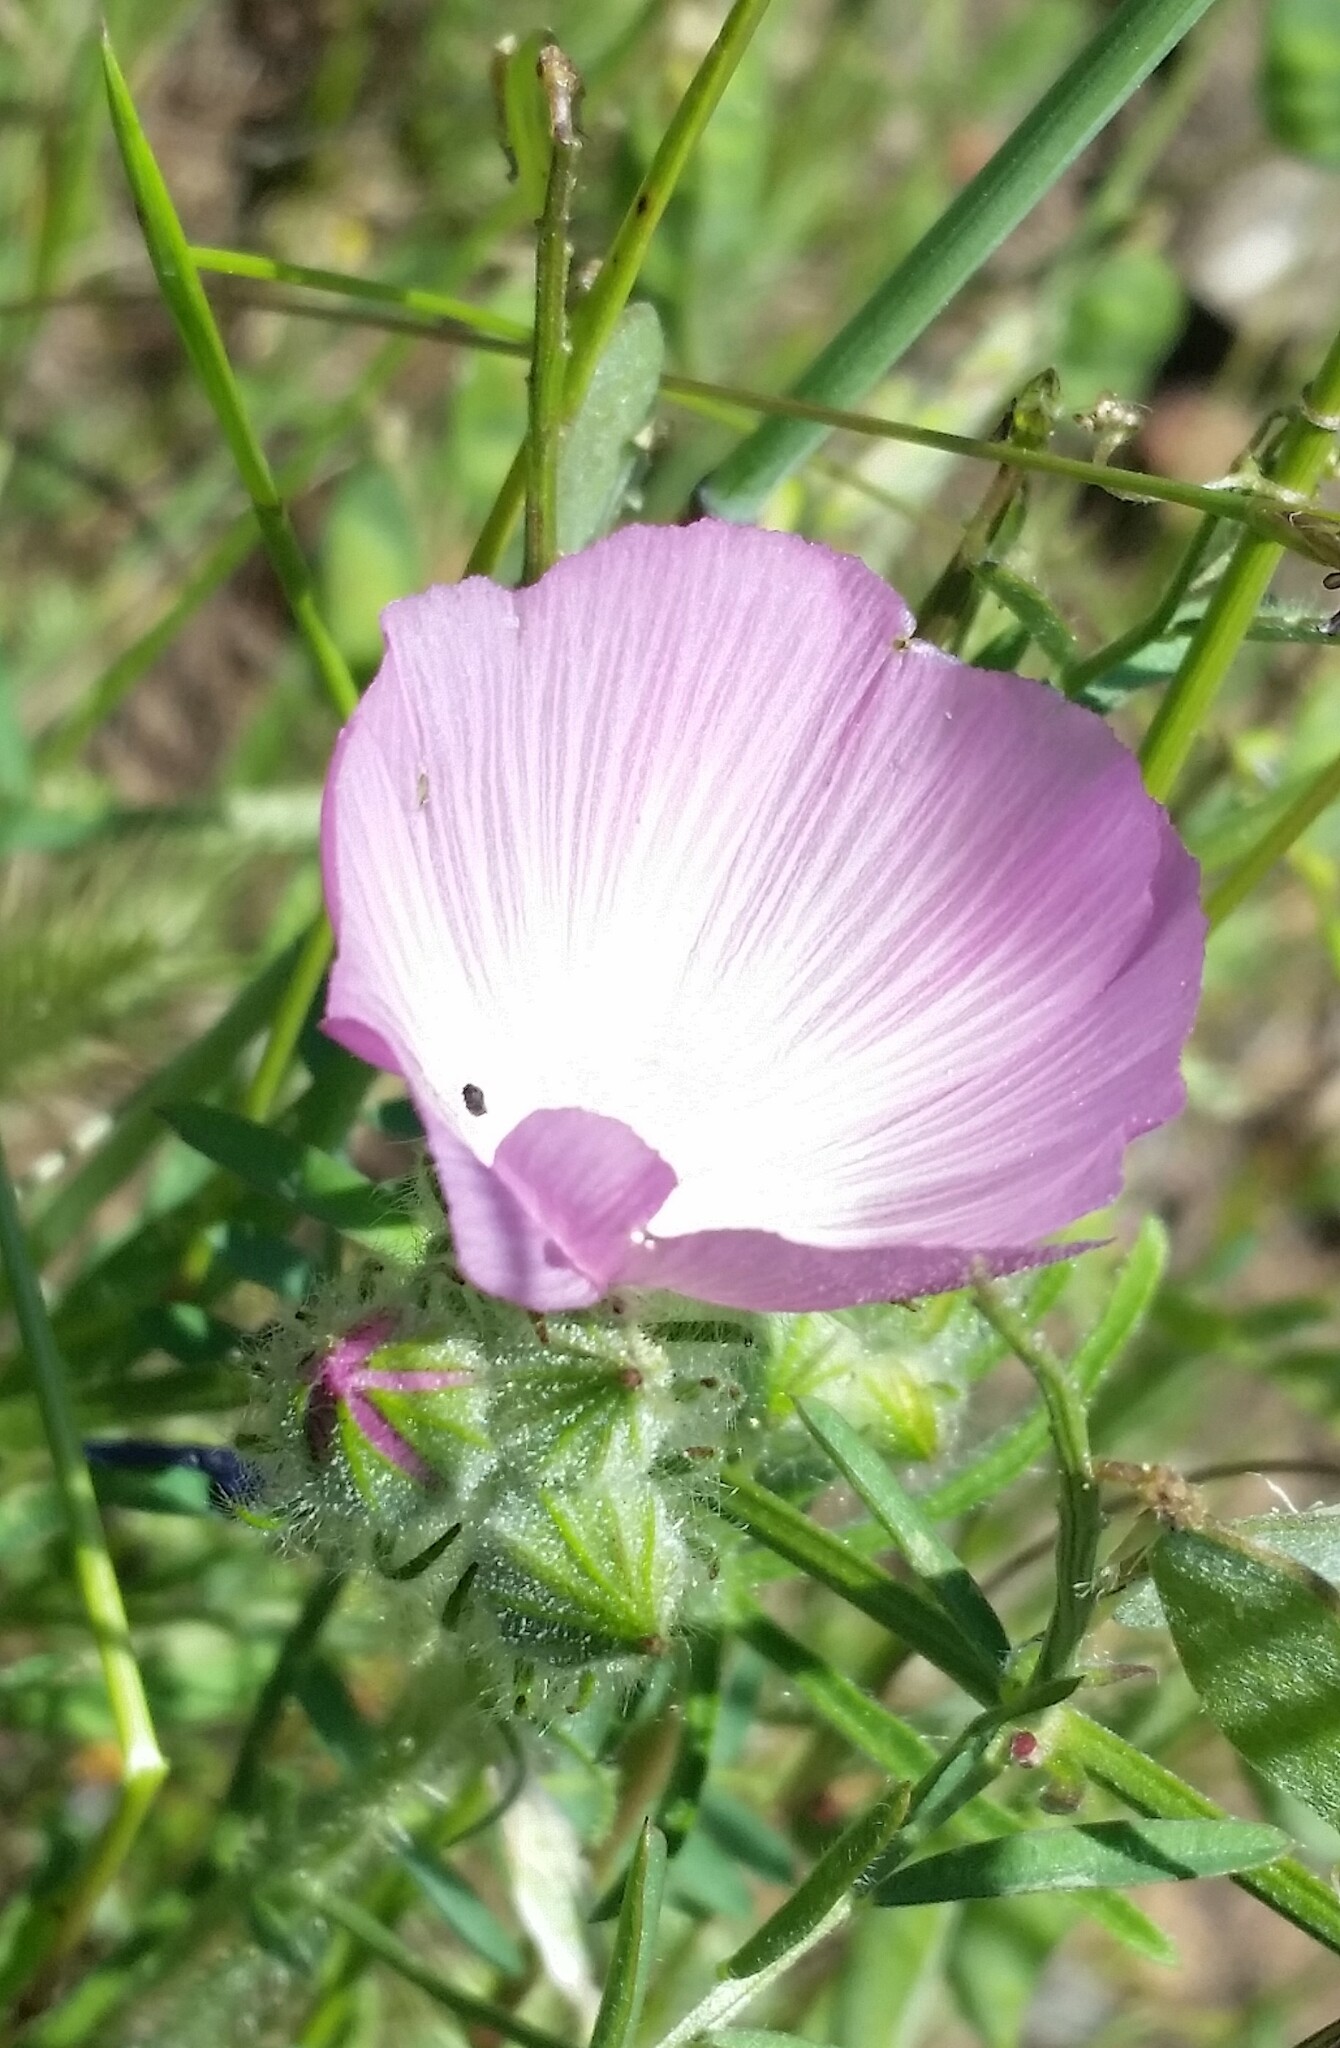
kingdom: Plantae
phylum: Tracheophyta
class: Magnoliopsida
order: Malvales
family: Malvaceae
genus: Sidalcea
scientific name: Sidalcea diploscypha
